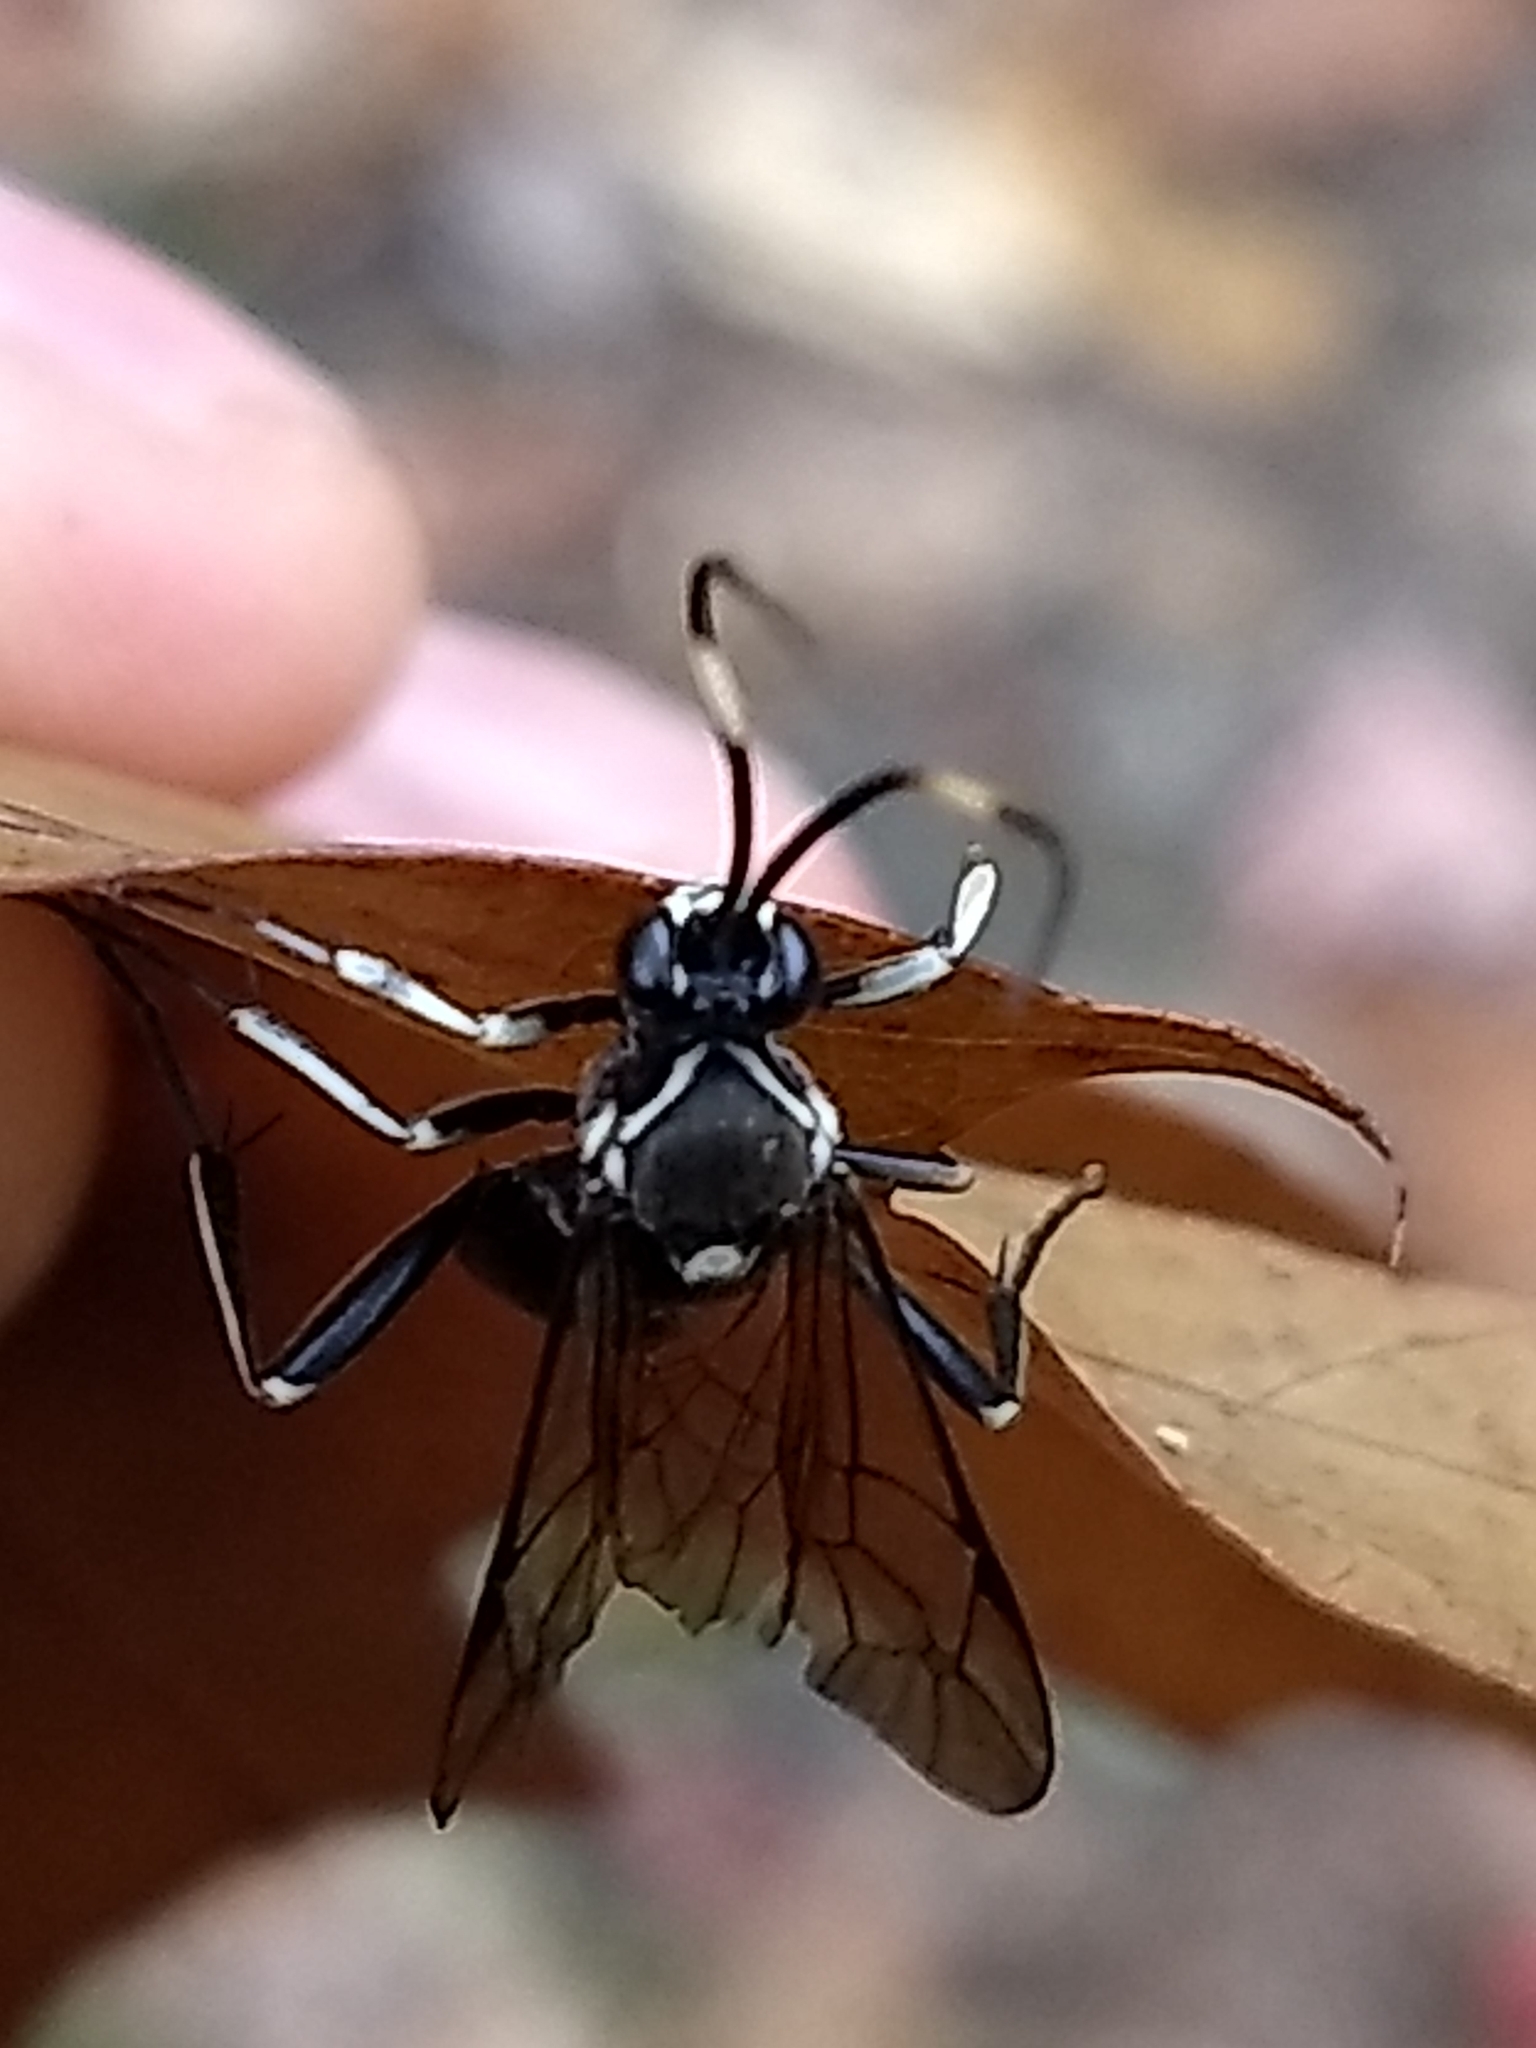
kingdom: Animalia
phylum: Arthropoda
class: Insecta
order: Hymenoptera
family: Ichneumonidae
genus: Cratichneumon
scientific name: Cratichneumon unifasciatorius
